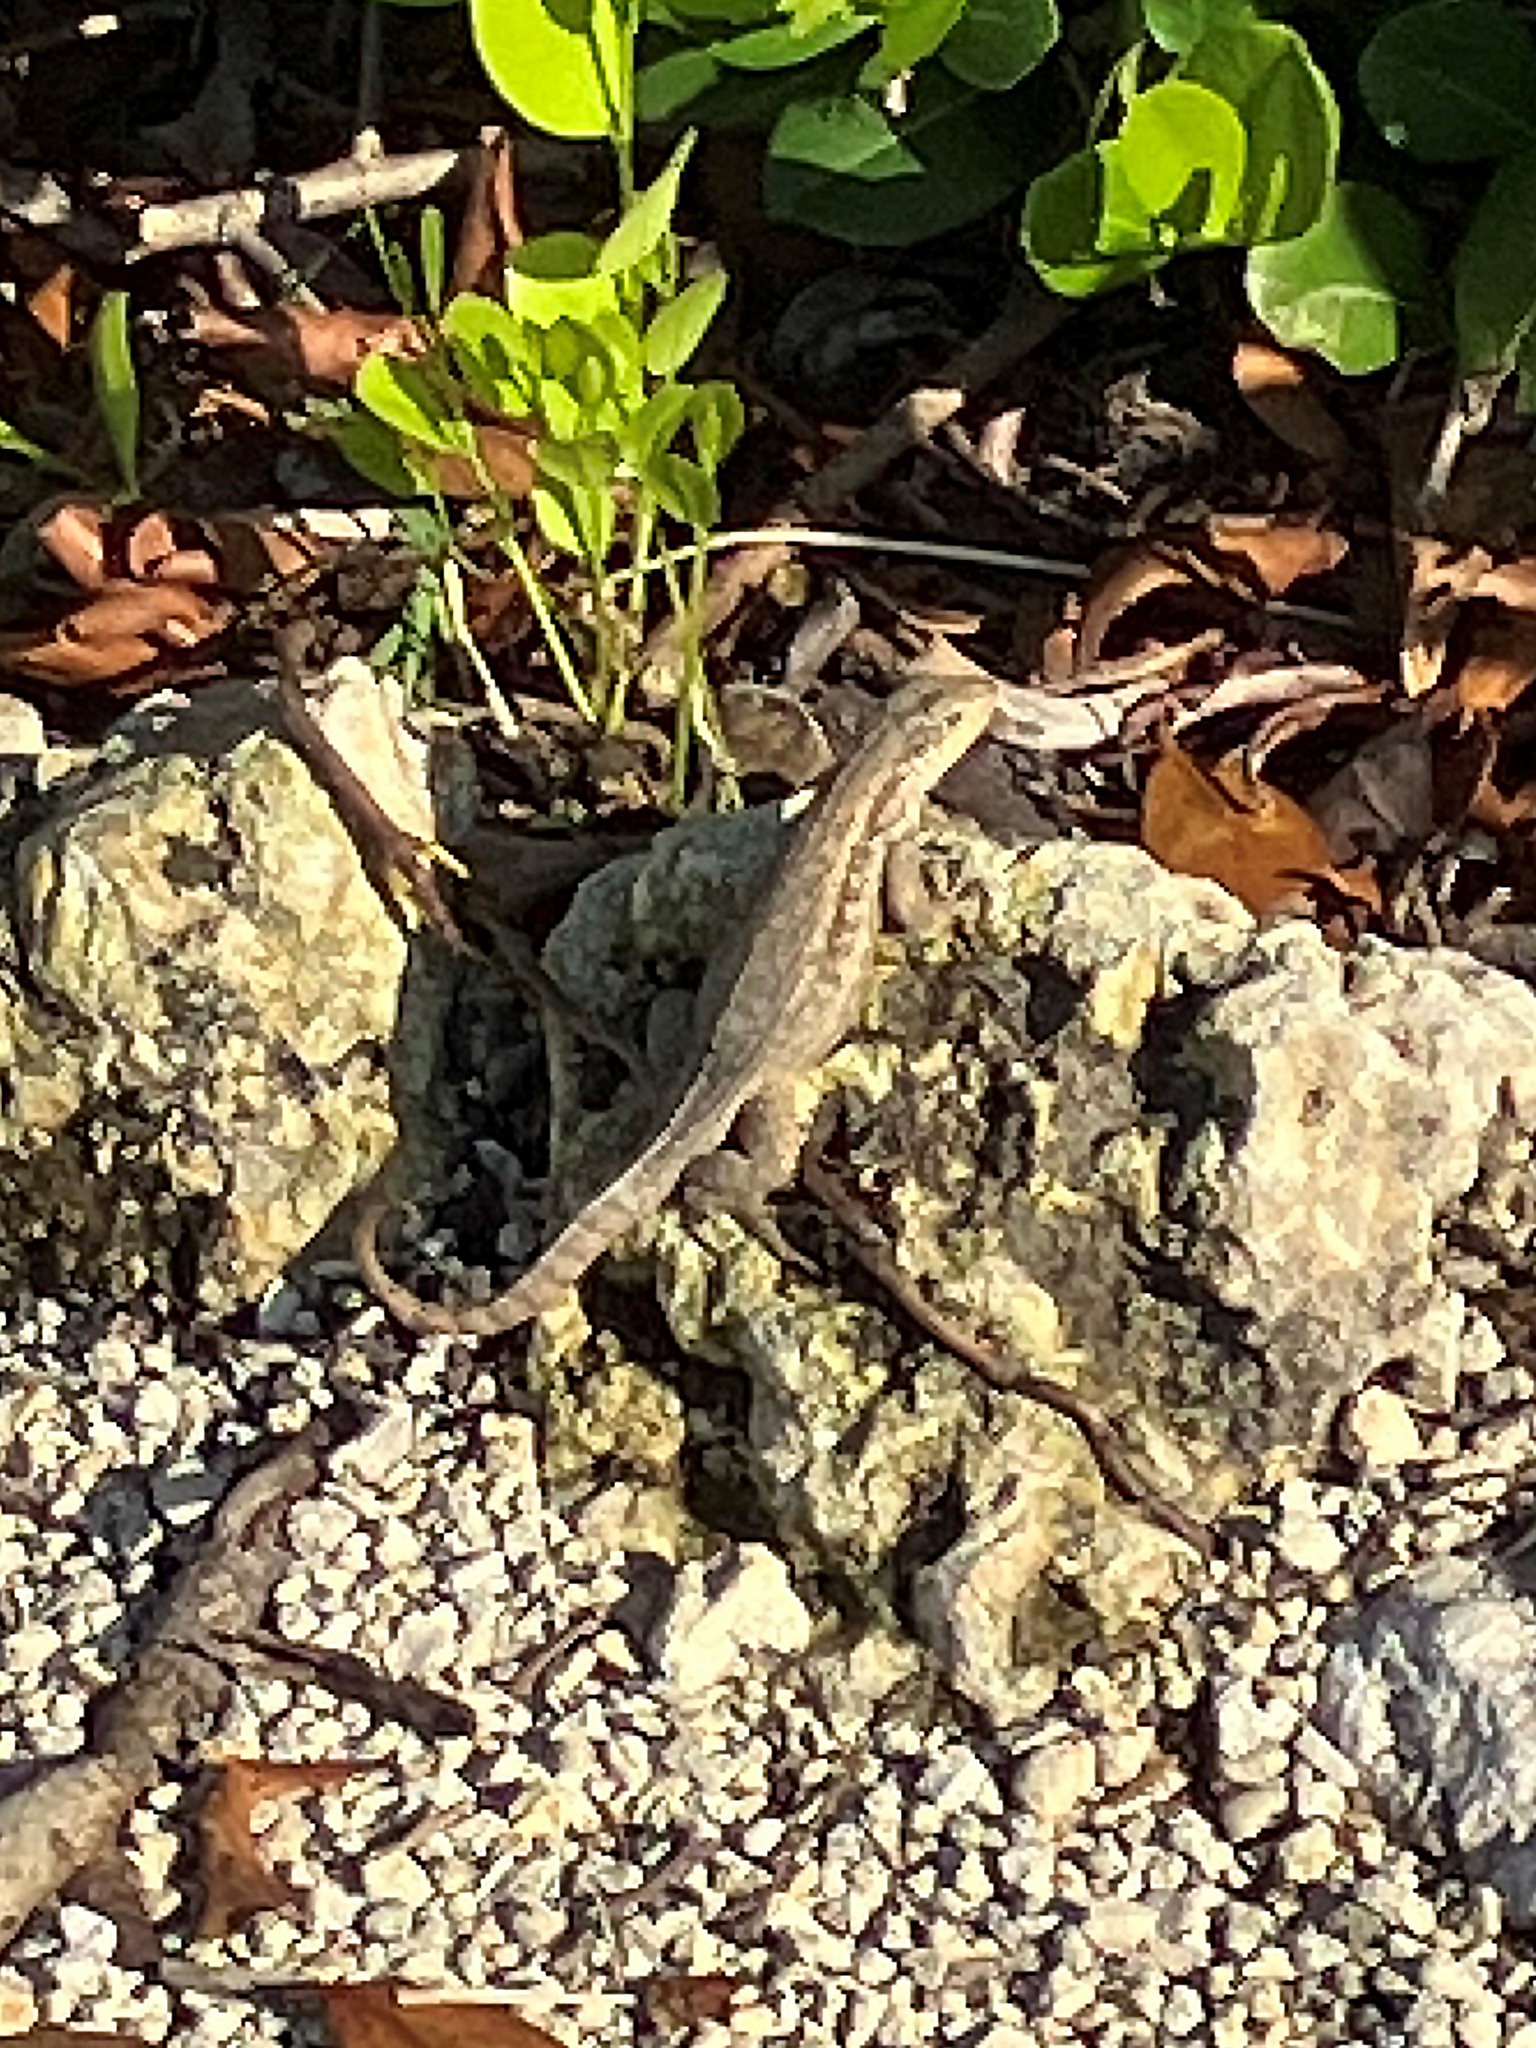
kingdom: Animalia
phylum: Chordata
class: Squamata
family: Leiocephalidae
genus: Leiocephalus
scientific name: Leiocephalus carinatus
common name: Northern curly-tailed lizard
